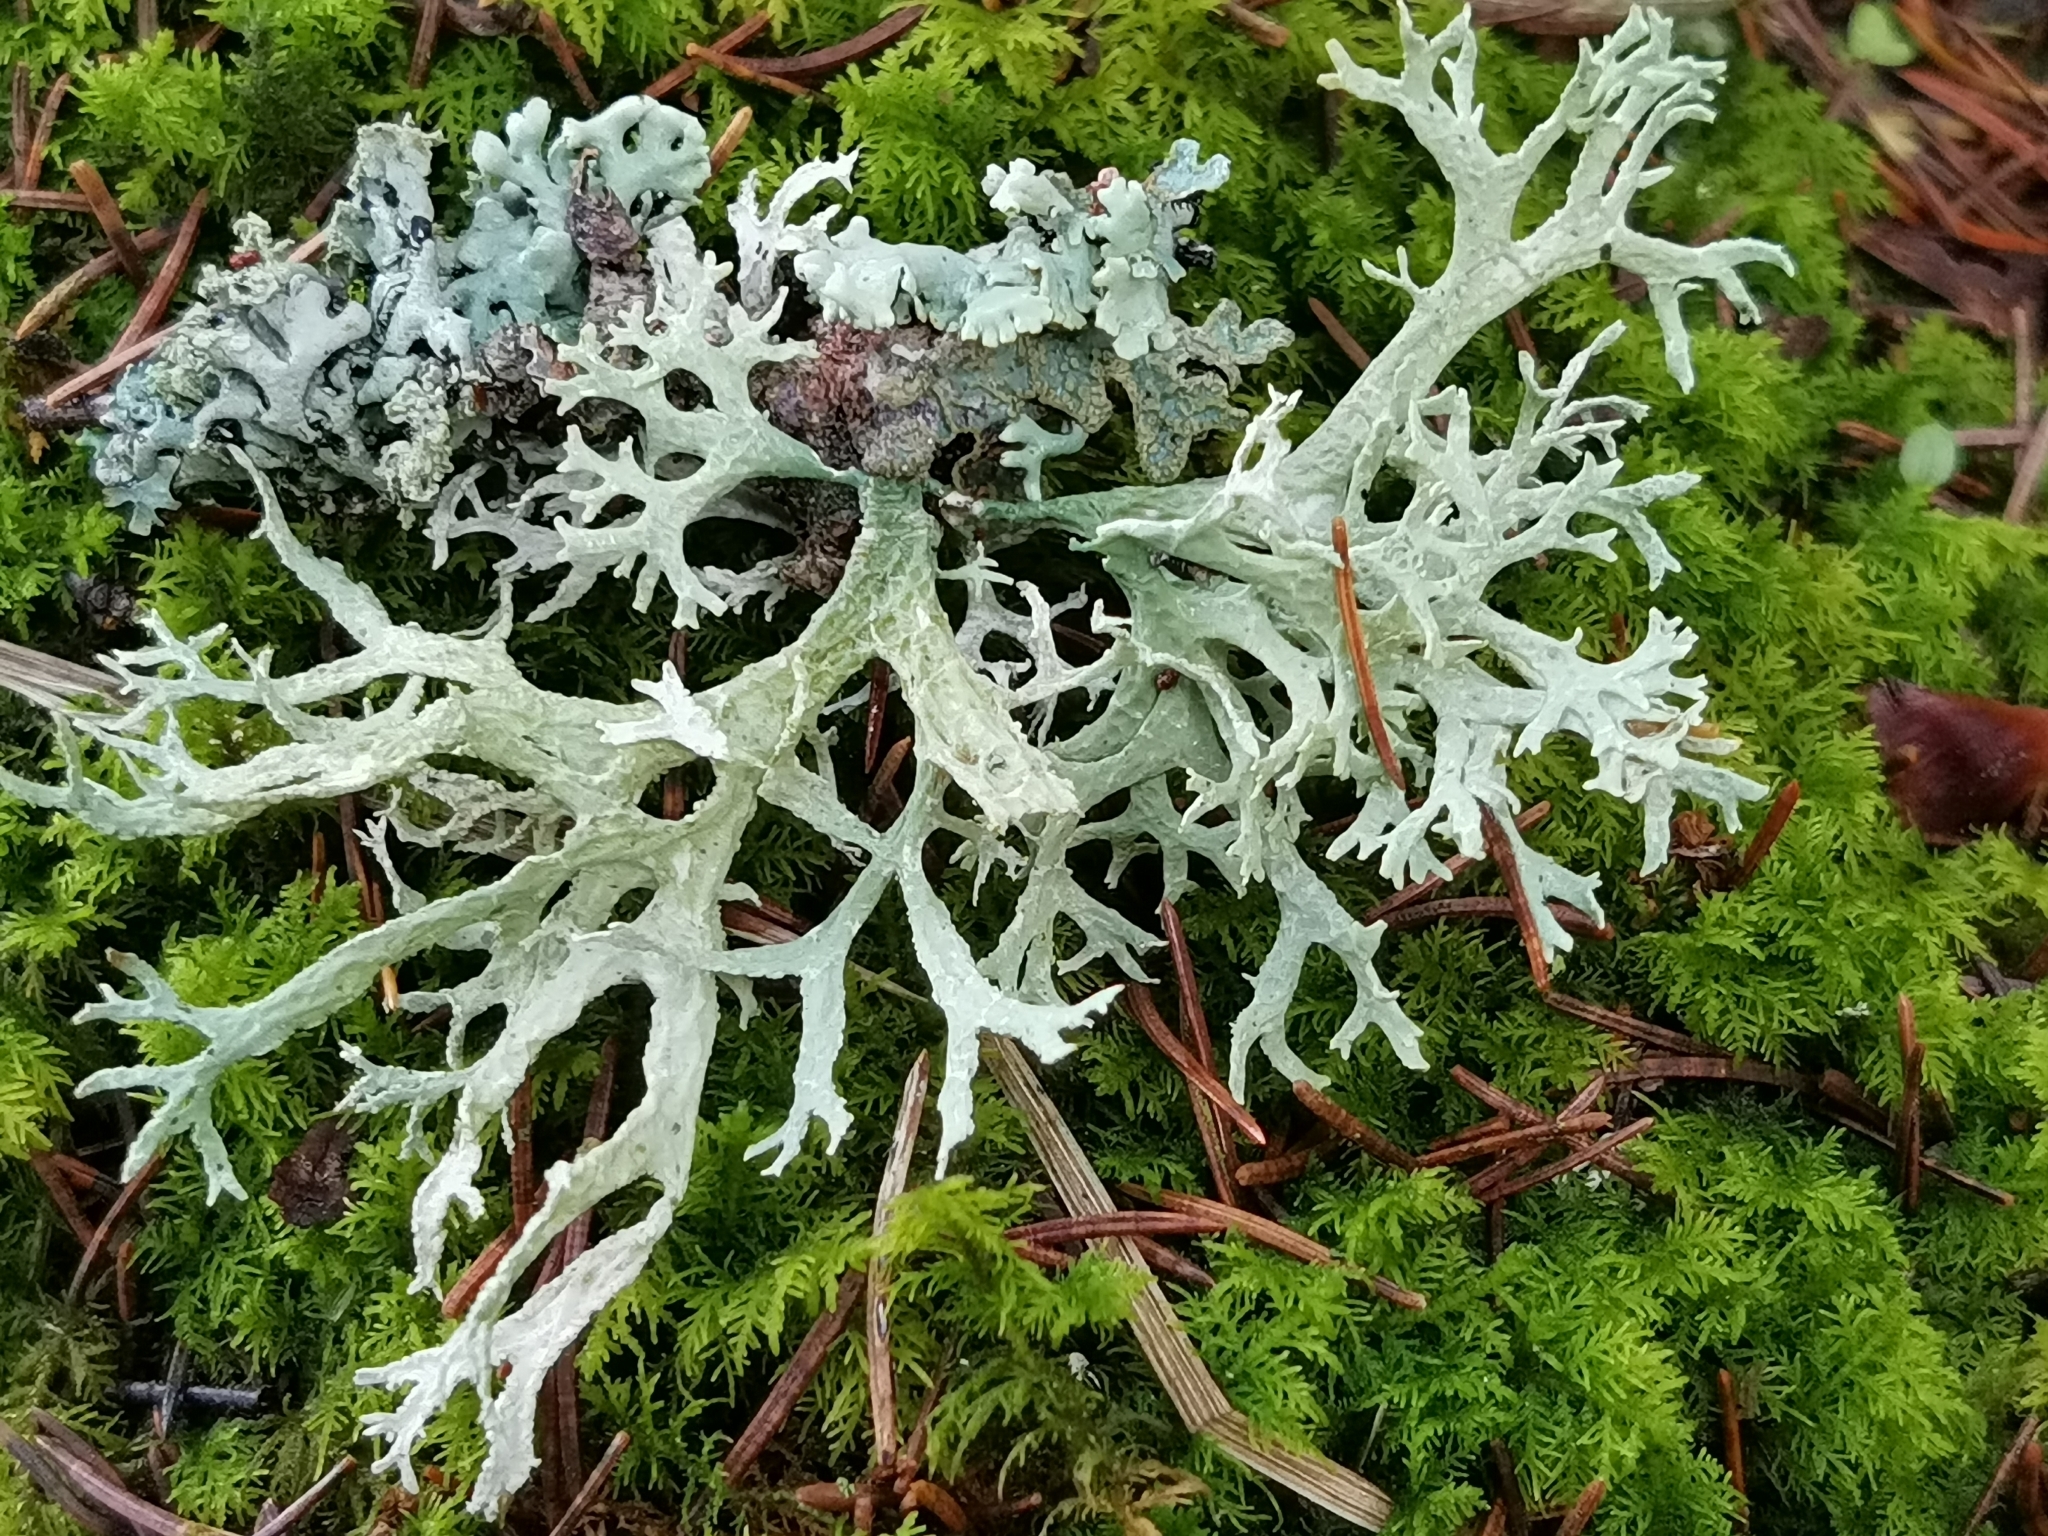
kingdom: Fungi
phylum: Ascomycota
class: Lecanoromycetes
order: Lecanorales
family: Parmeliaceae
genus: Evernia
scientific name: Evernia prunastri
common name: Oak moss
